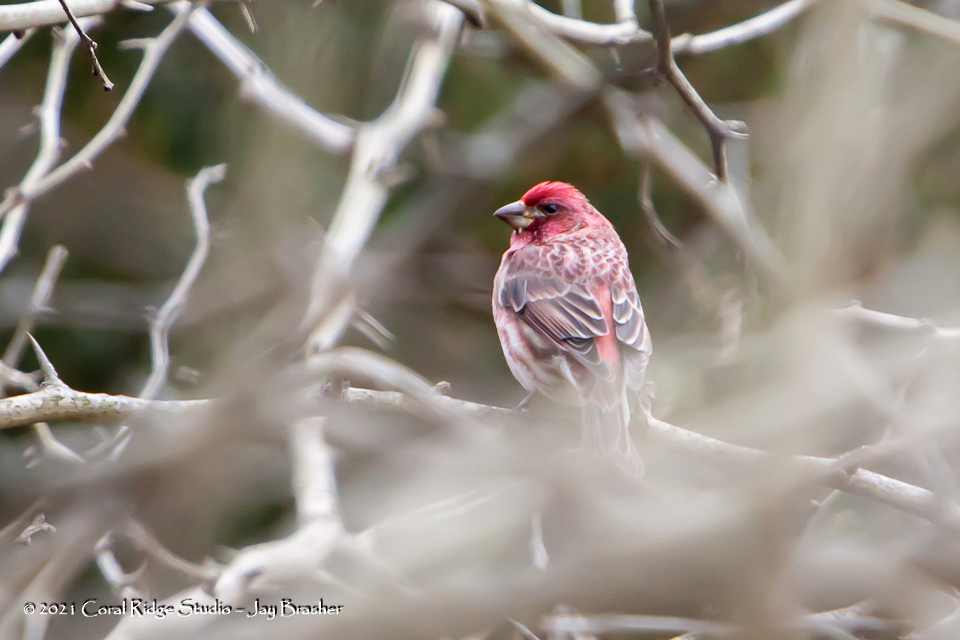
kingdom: Animalia
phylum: Chordata
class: Aves
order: Passeriformes
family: Fringillidae
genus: Haemorhous
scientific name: Haemorhous purpureus
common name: Purple finch
